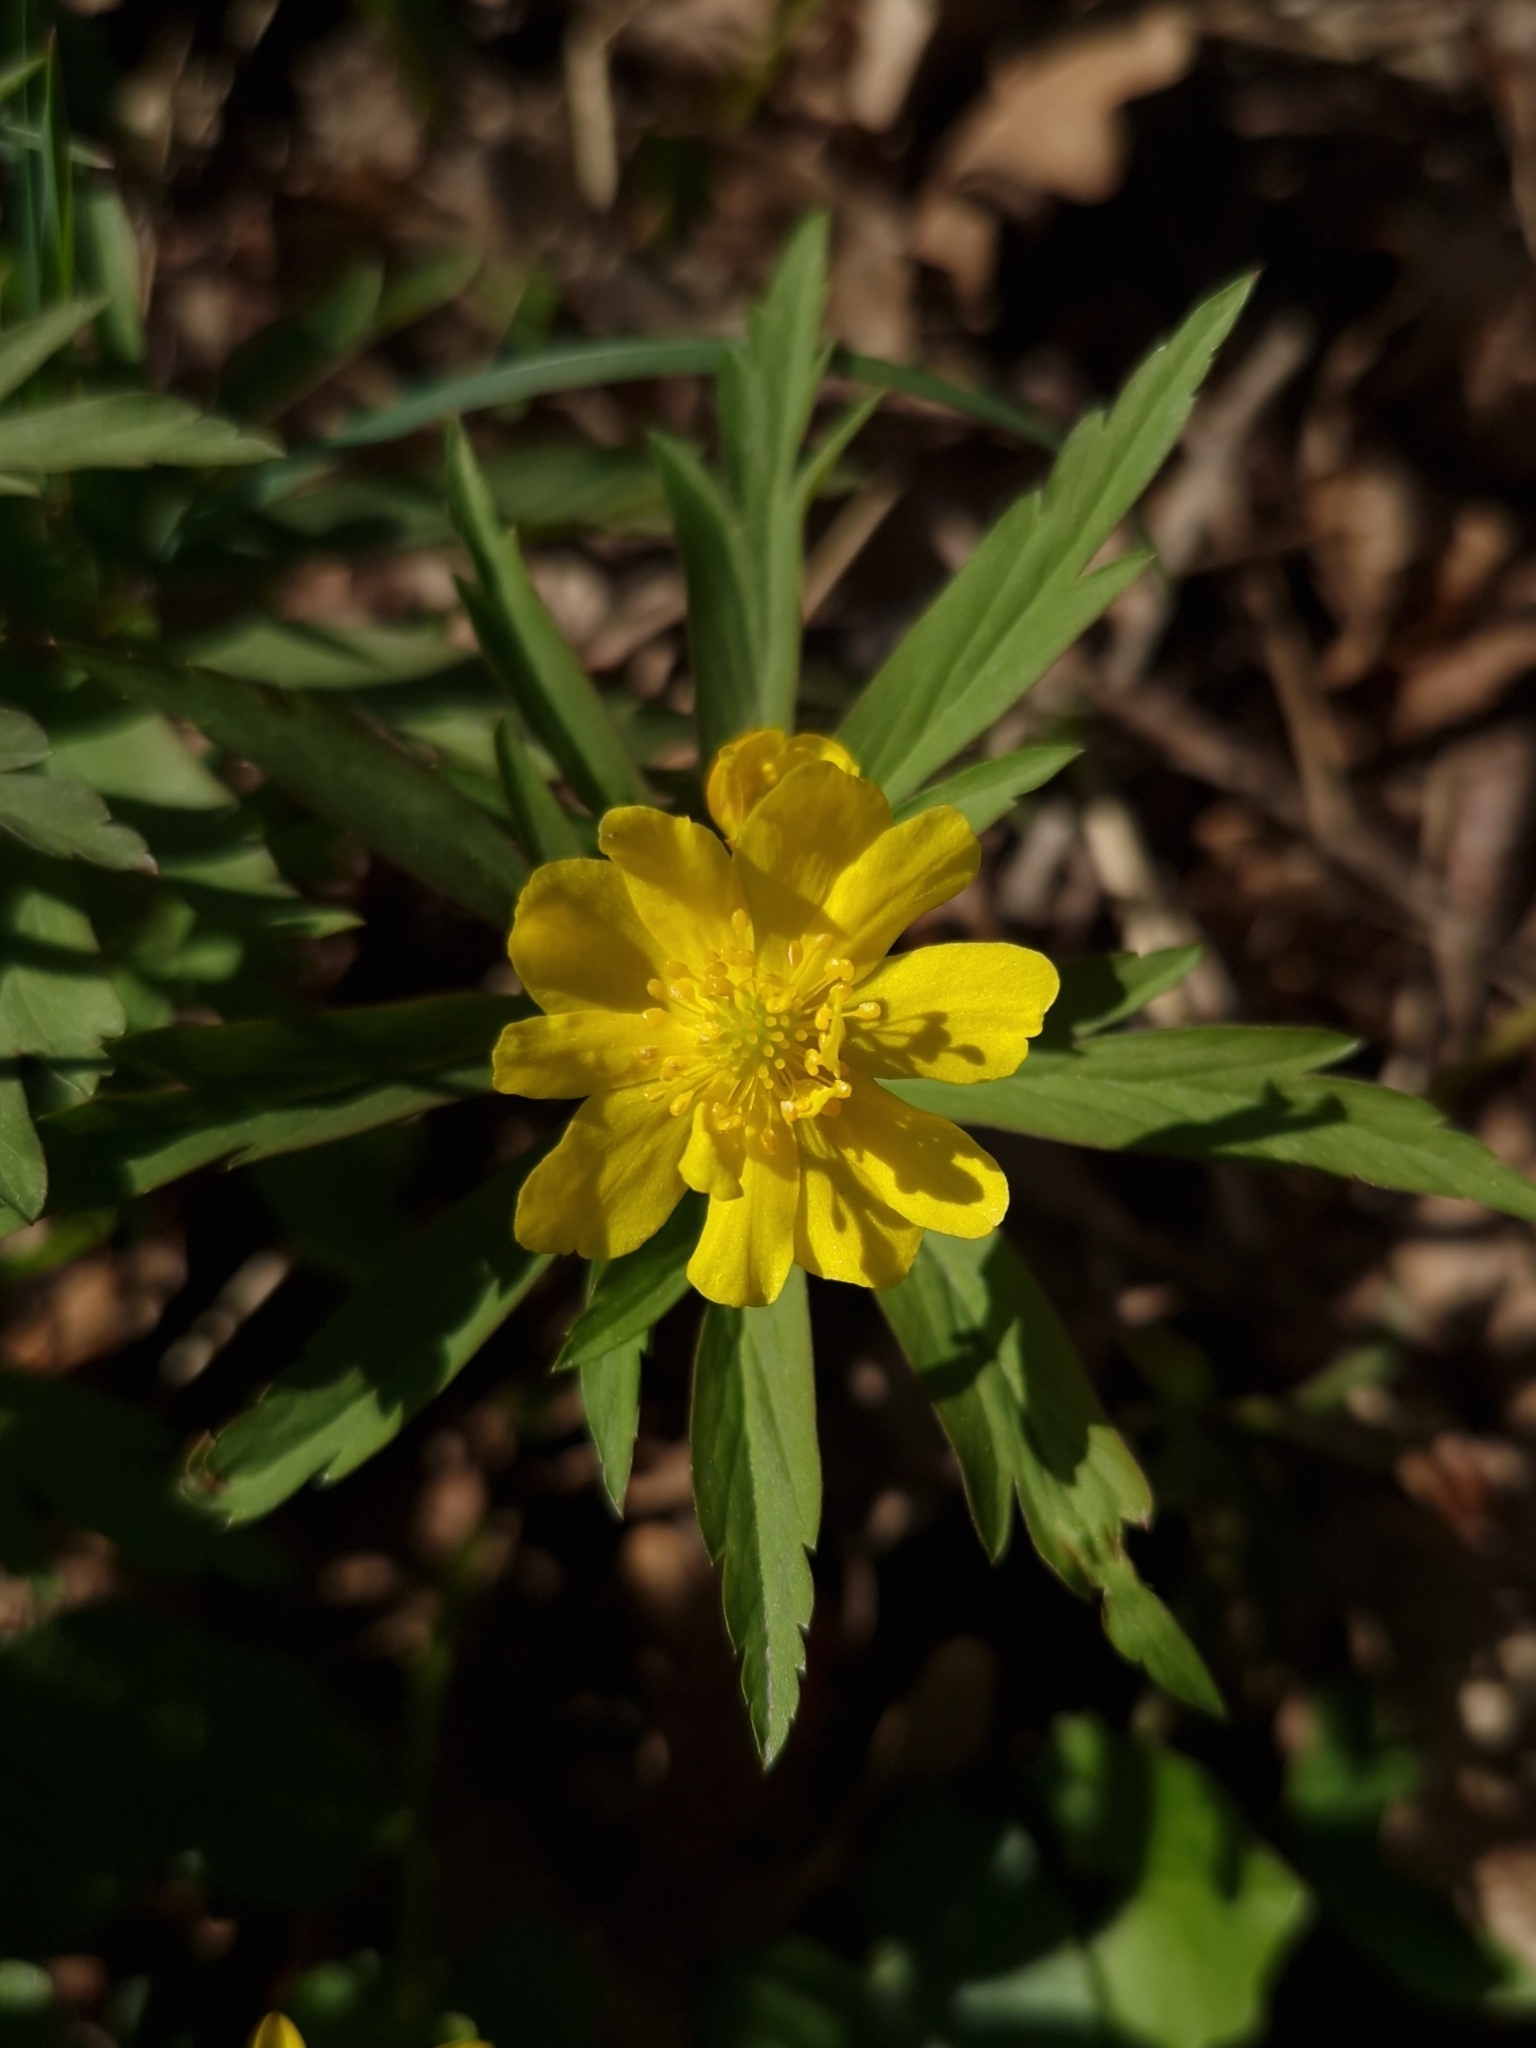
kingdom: Plantae
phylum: Tracheophyta
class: Magnoliopsida
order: Ranunculales
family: Ranunculaceae
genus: Anemone
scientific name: Anemone ranunculoides
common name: Yellow anemone
